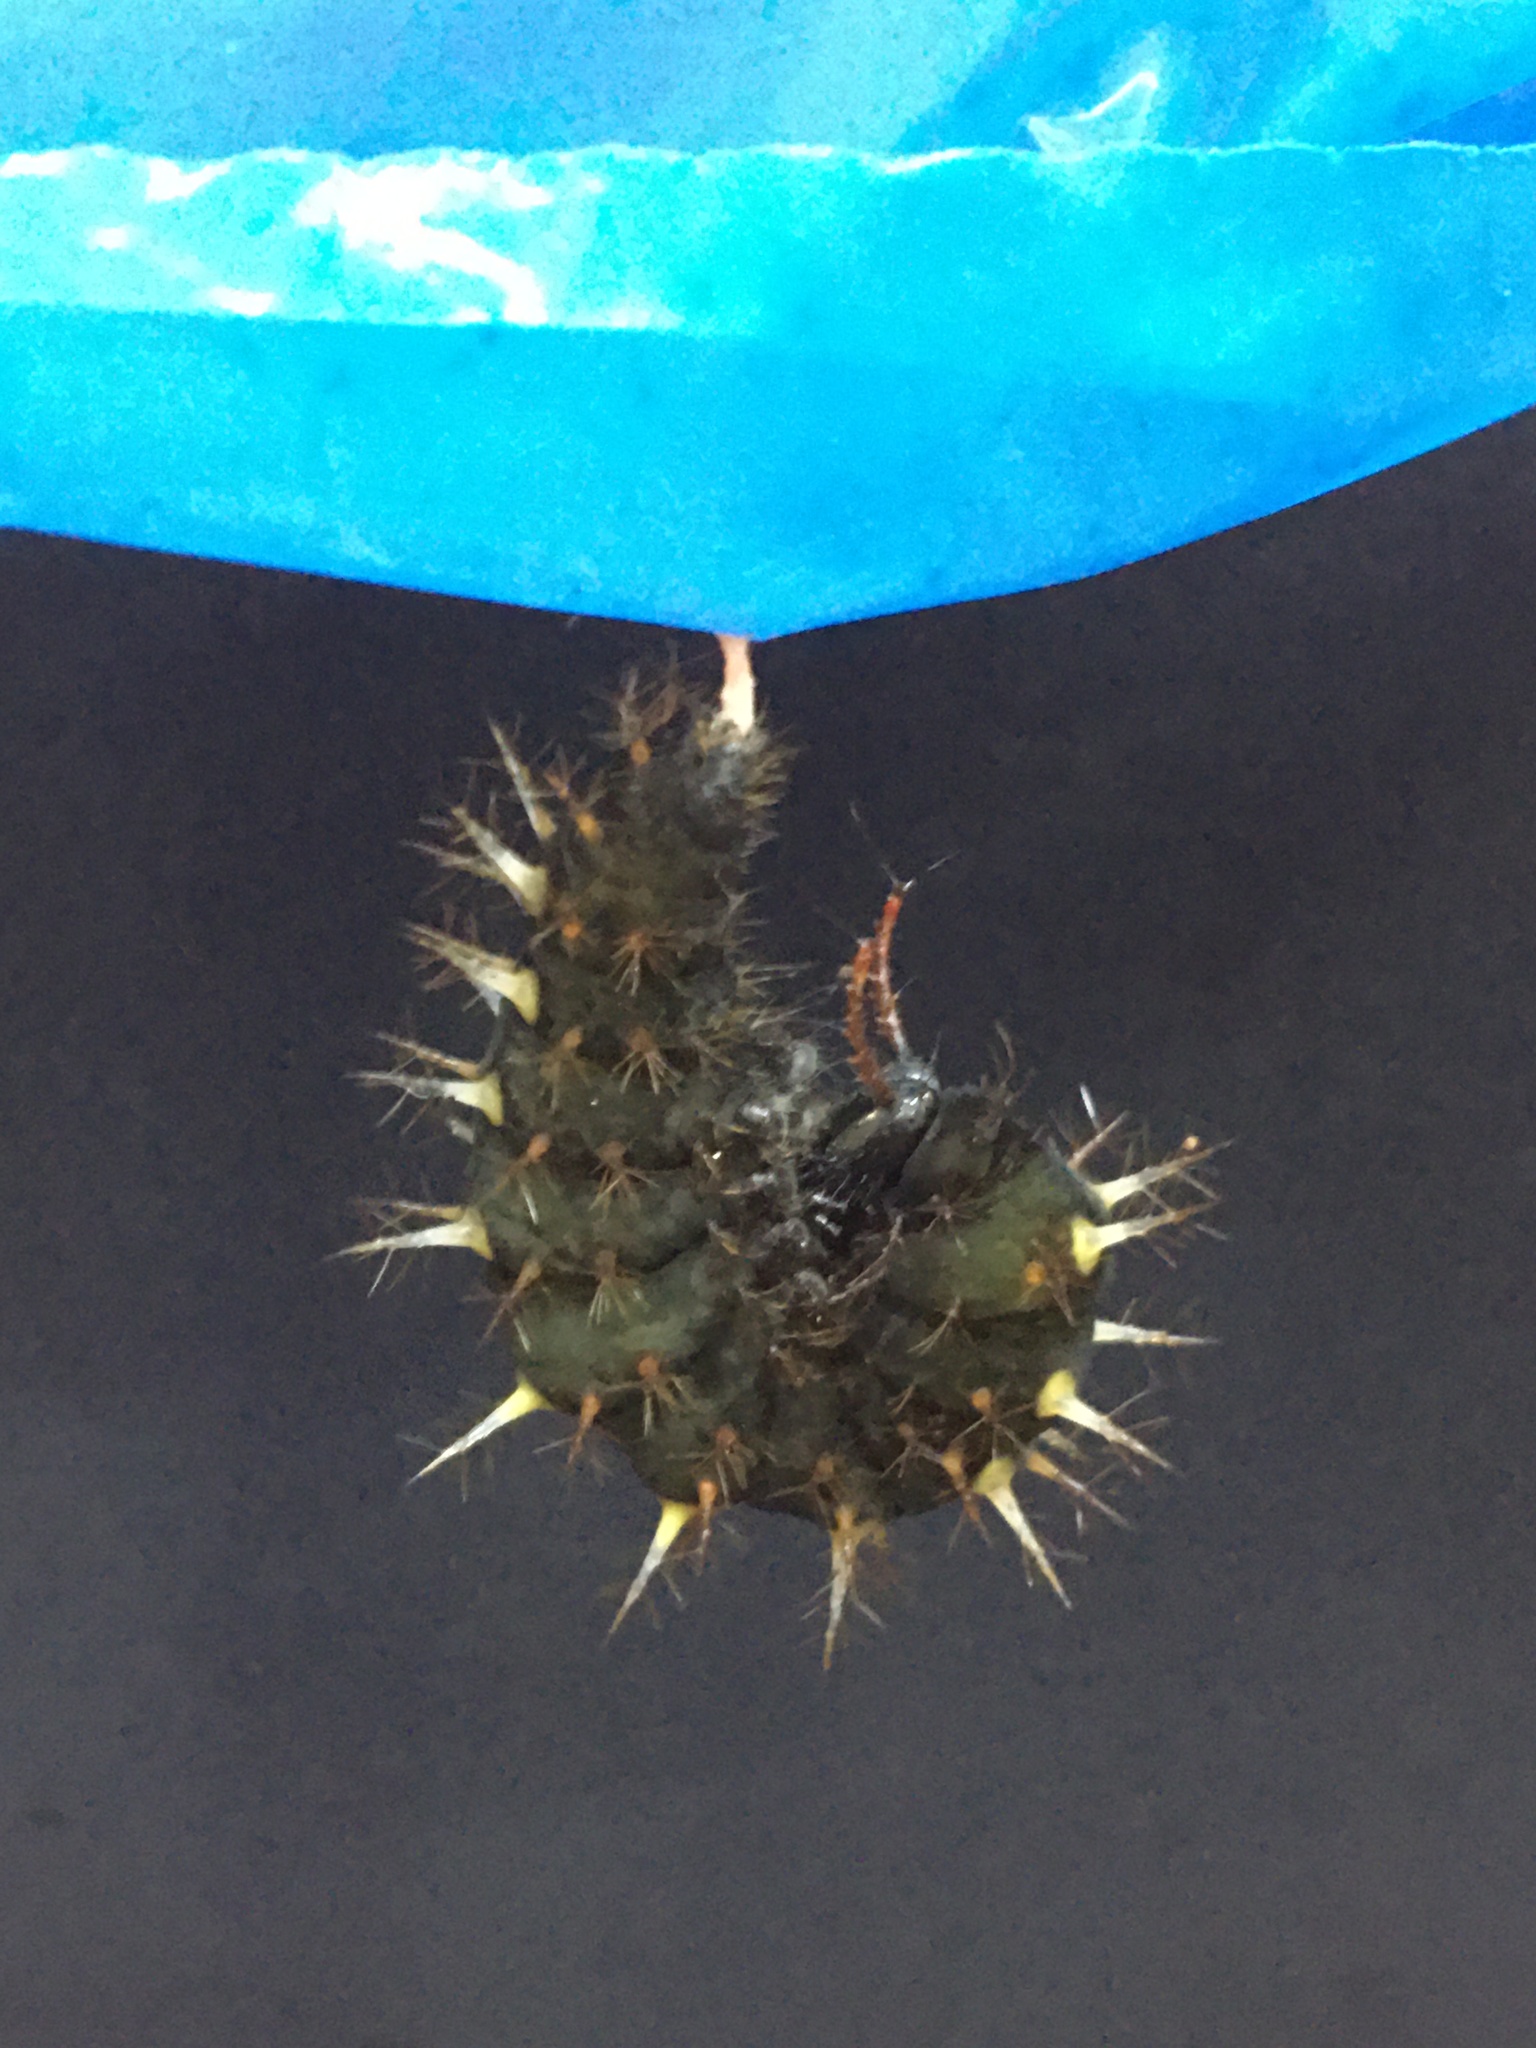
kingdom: Animalia
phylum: Arthropoda
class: Insecta
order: Lepidoptera
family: Nymphalidae
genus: Siproeta
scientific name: Siproeta stelenes
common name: Malachite
